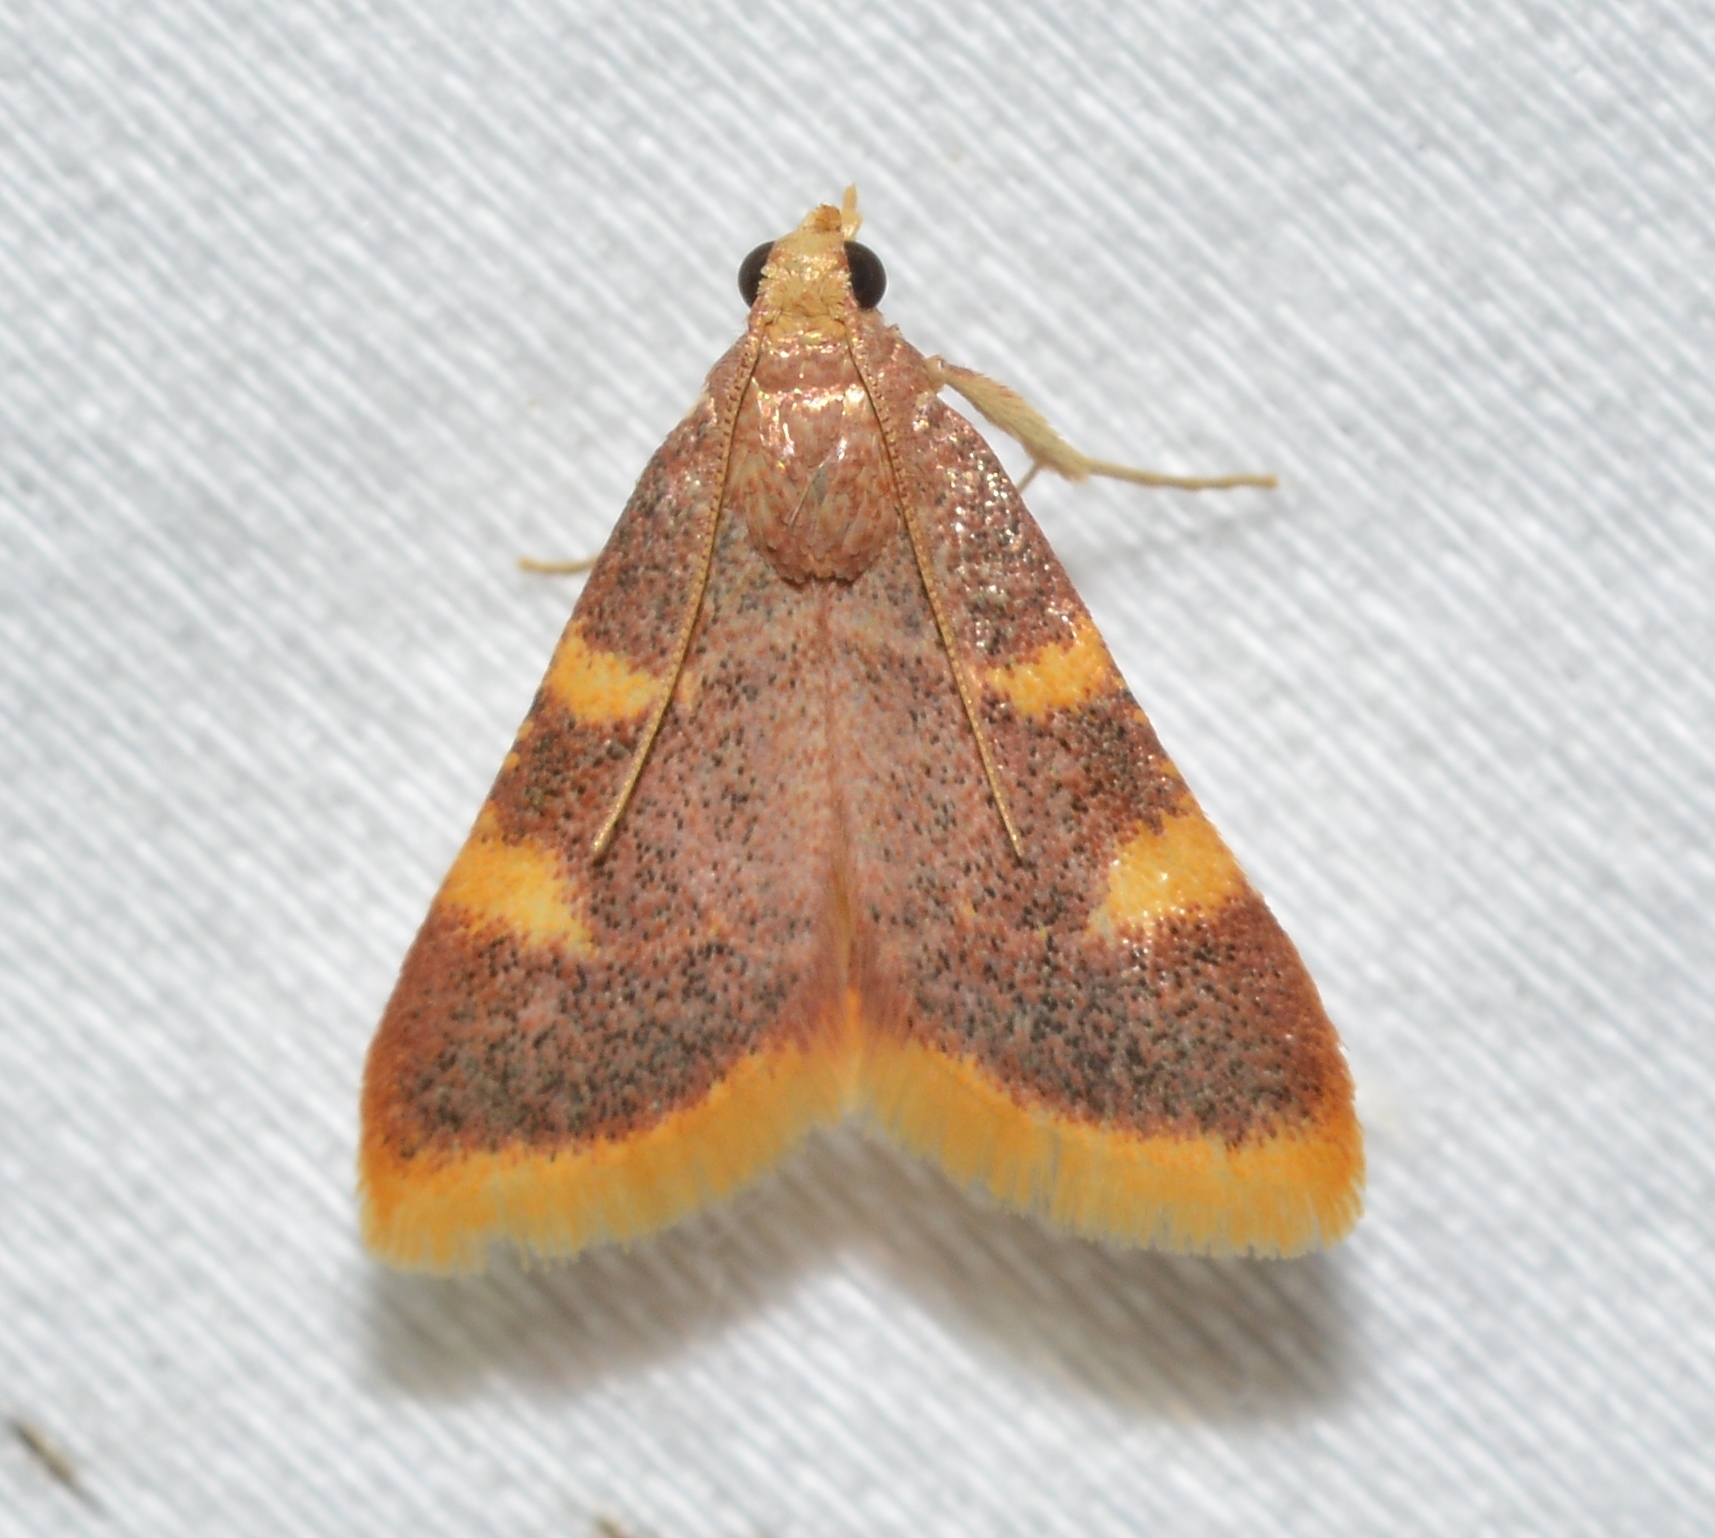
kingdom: Animalia
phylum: Arthropoda
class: Insecta
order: Lepidoptera
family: Pyralidae
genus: Hypsopygia
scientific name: Hypsopygia costalis
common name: Gold triangle
